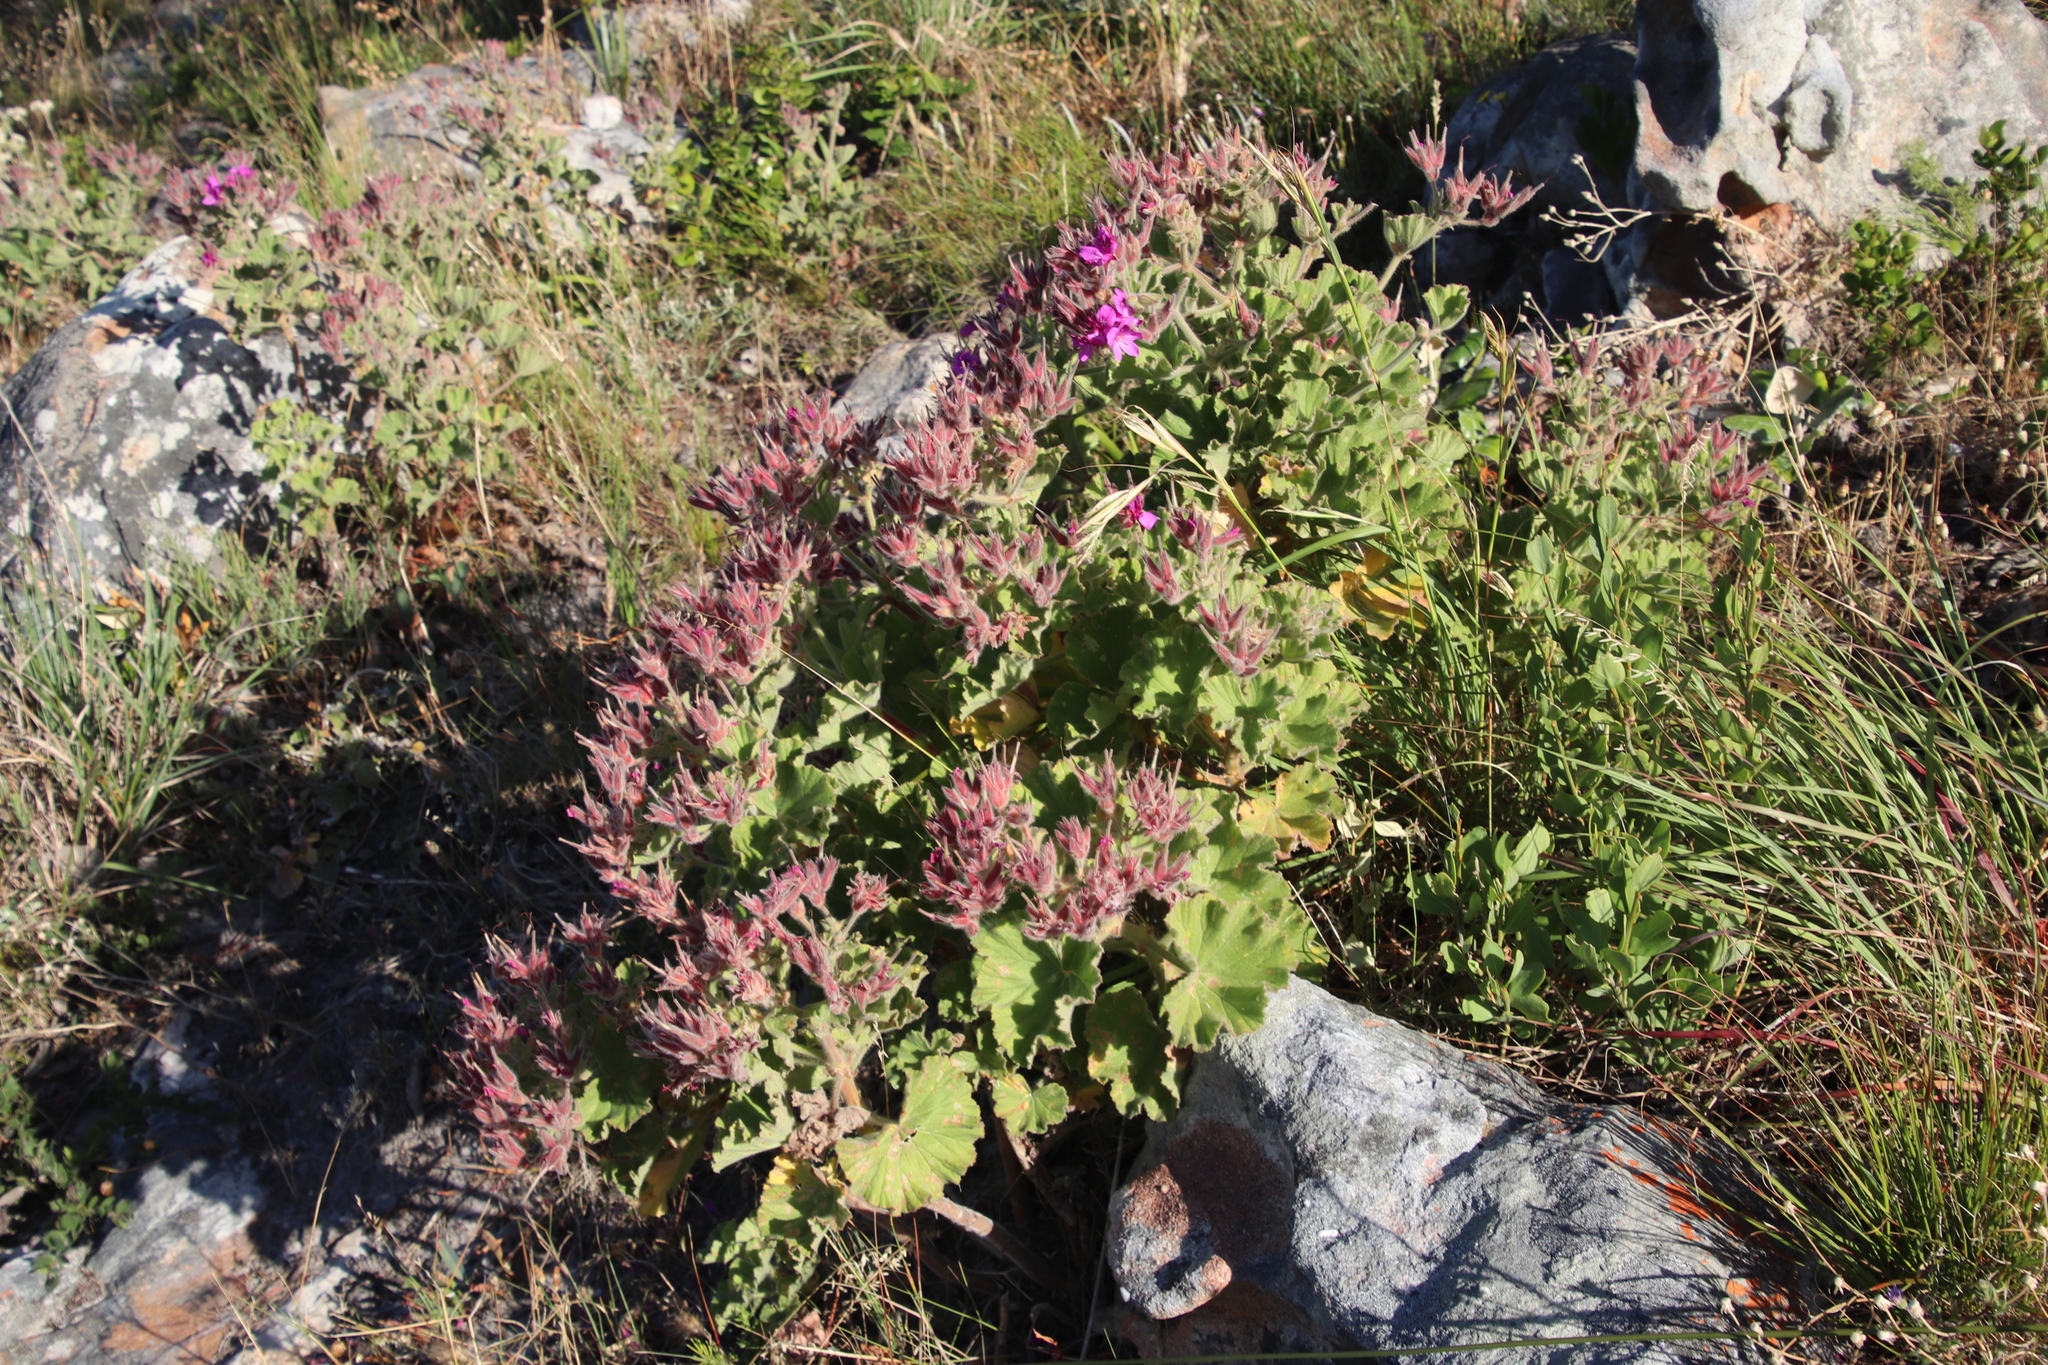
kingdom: Plantae
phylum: Tracheophyta
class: Magnoliopsida
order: Geraniales
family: Geraniaceae
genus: Pelargonium
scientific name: Pelargonium cucullatum
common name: Tree pelargonium
